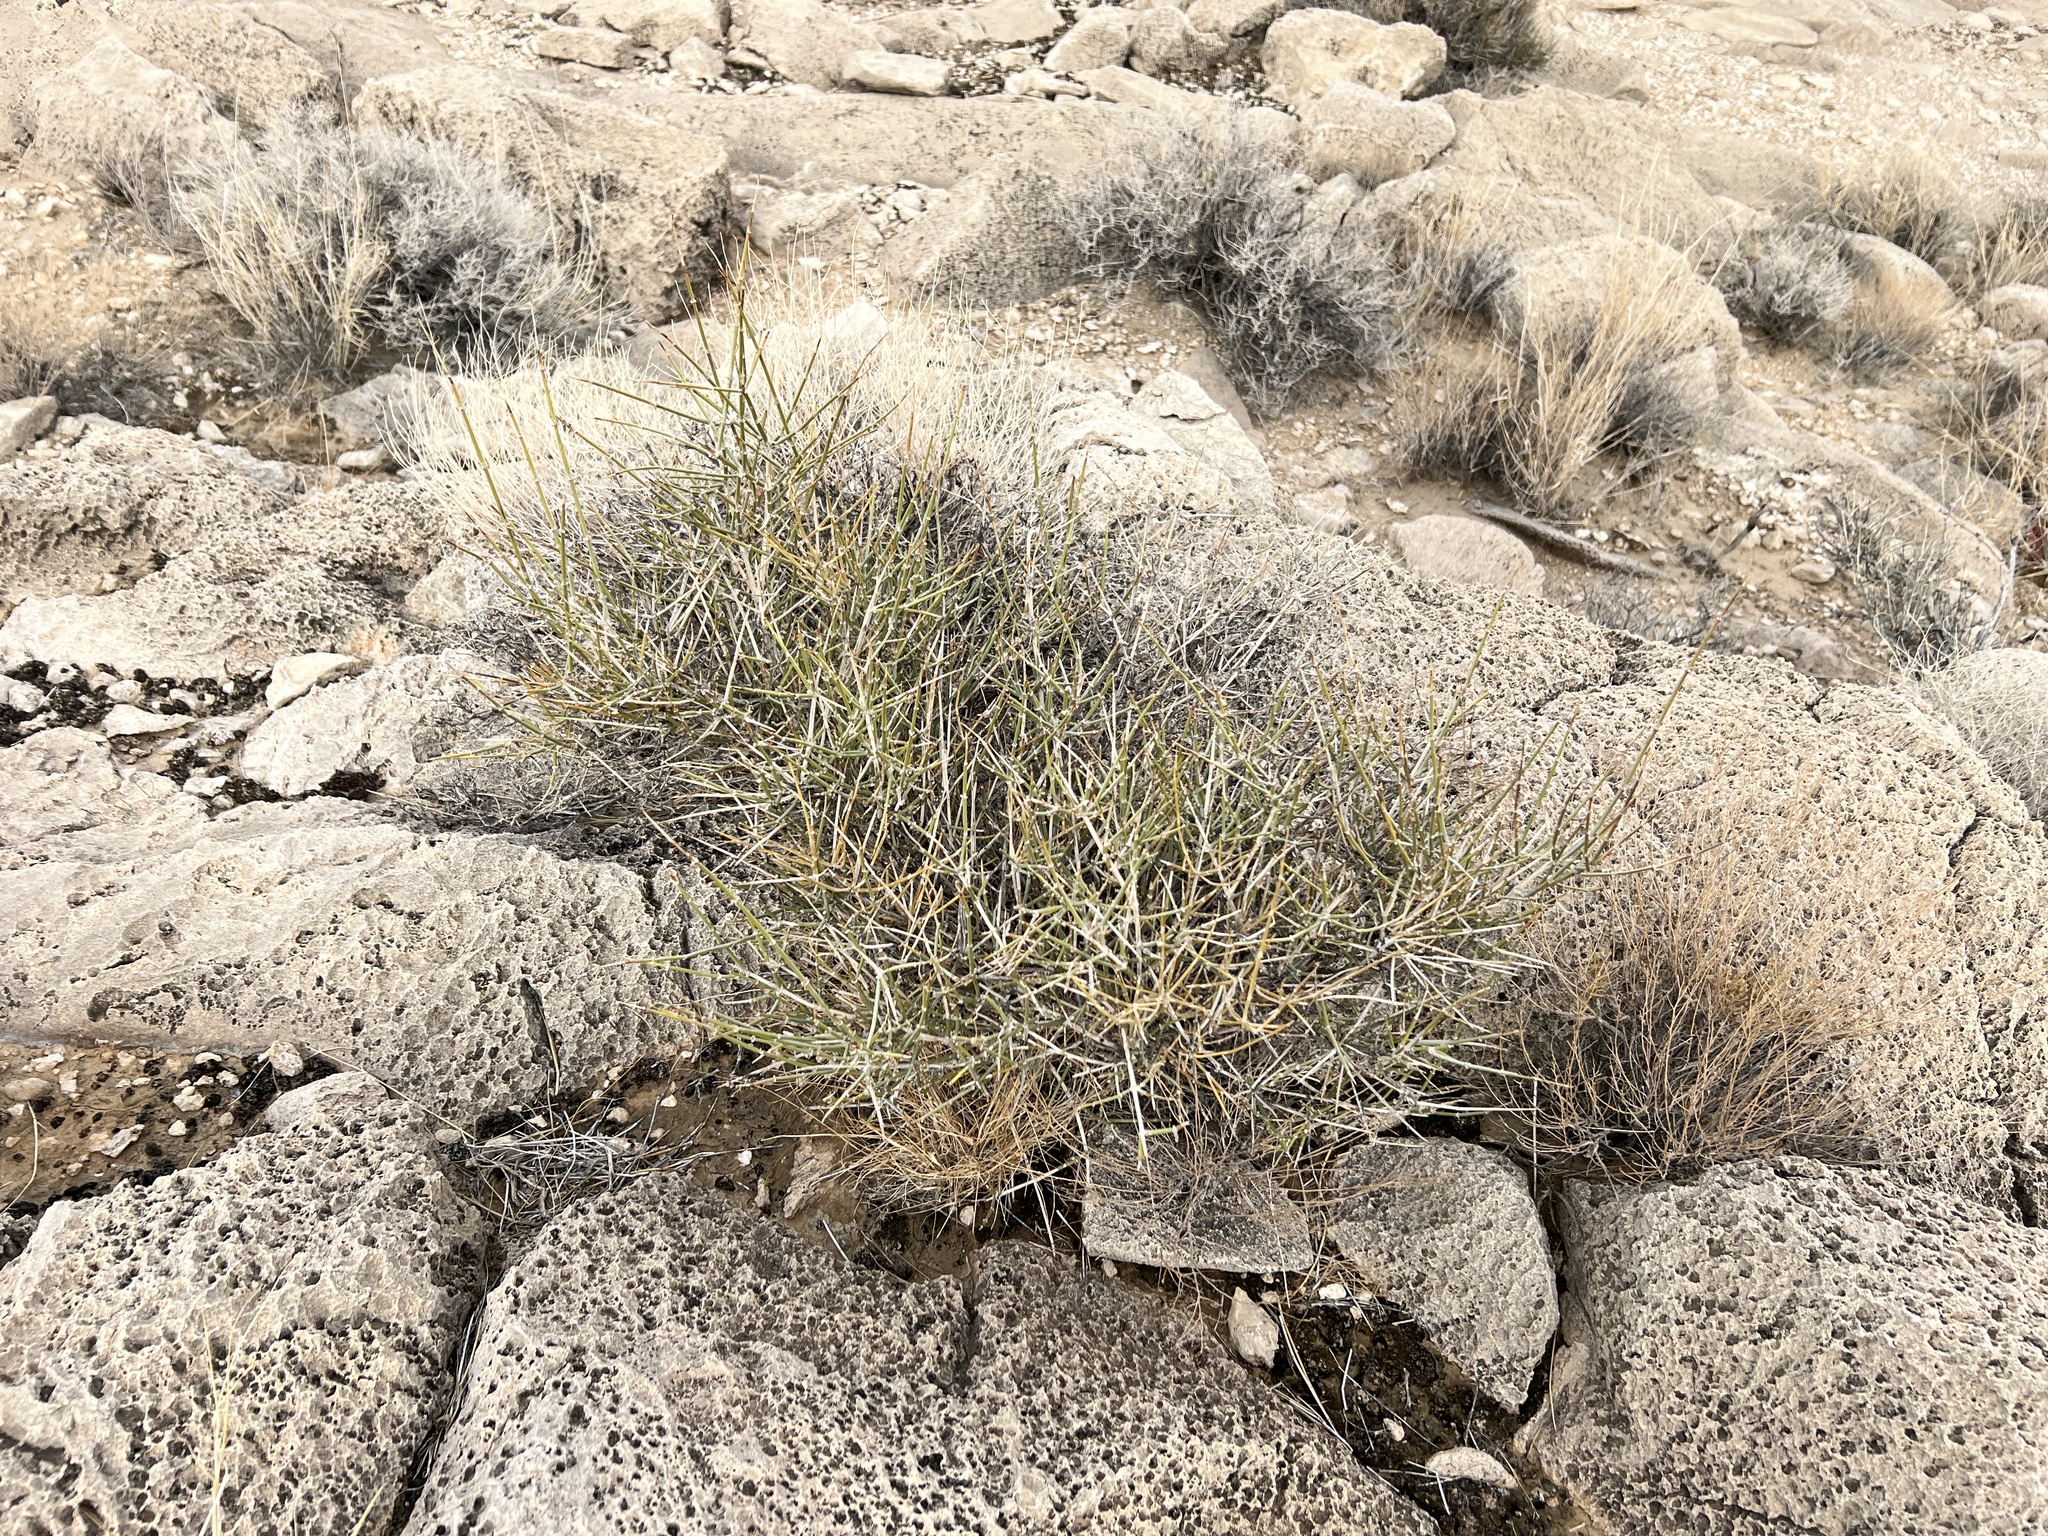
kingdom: Plantae
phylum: Tracheophyta
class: Gnetopsida
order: Ephedrales
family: Ephedraceae
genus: Ephedra
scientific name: Ephedra nevadensis
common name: Gray ephedra
